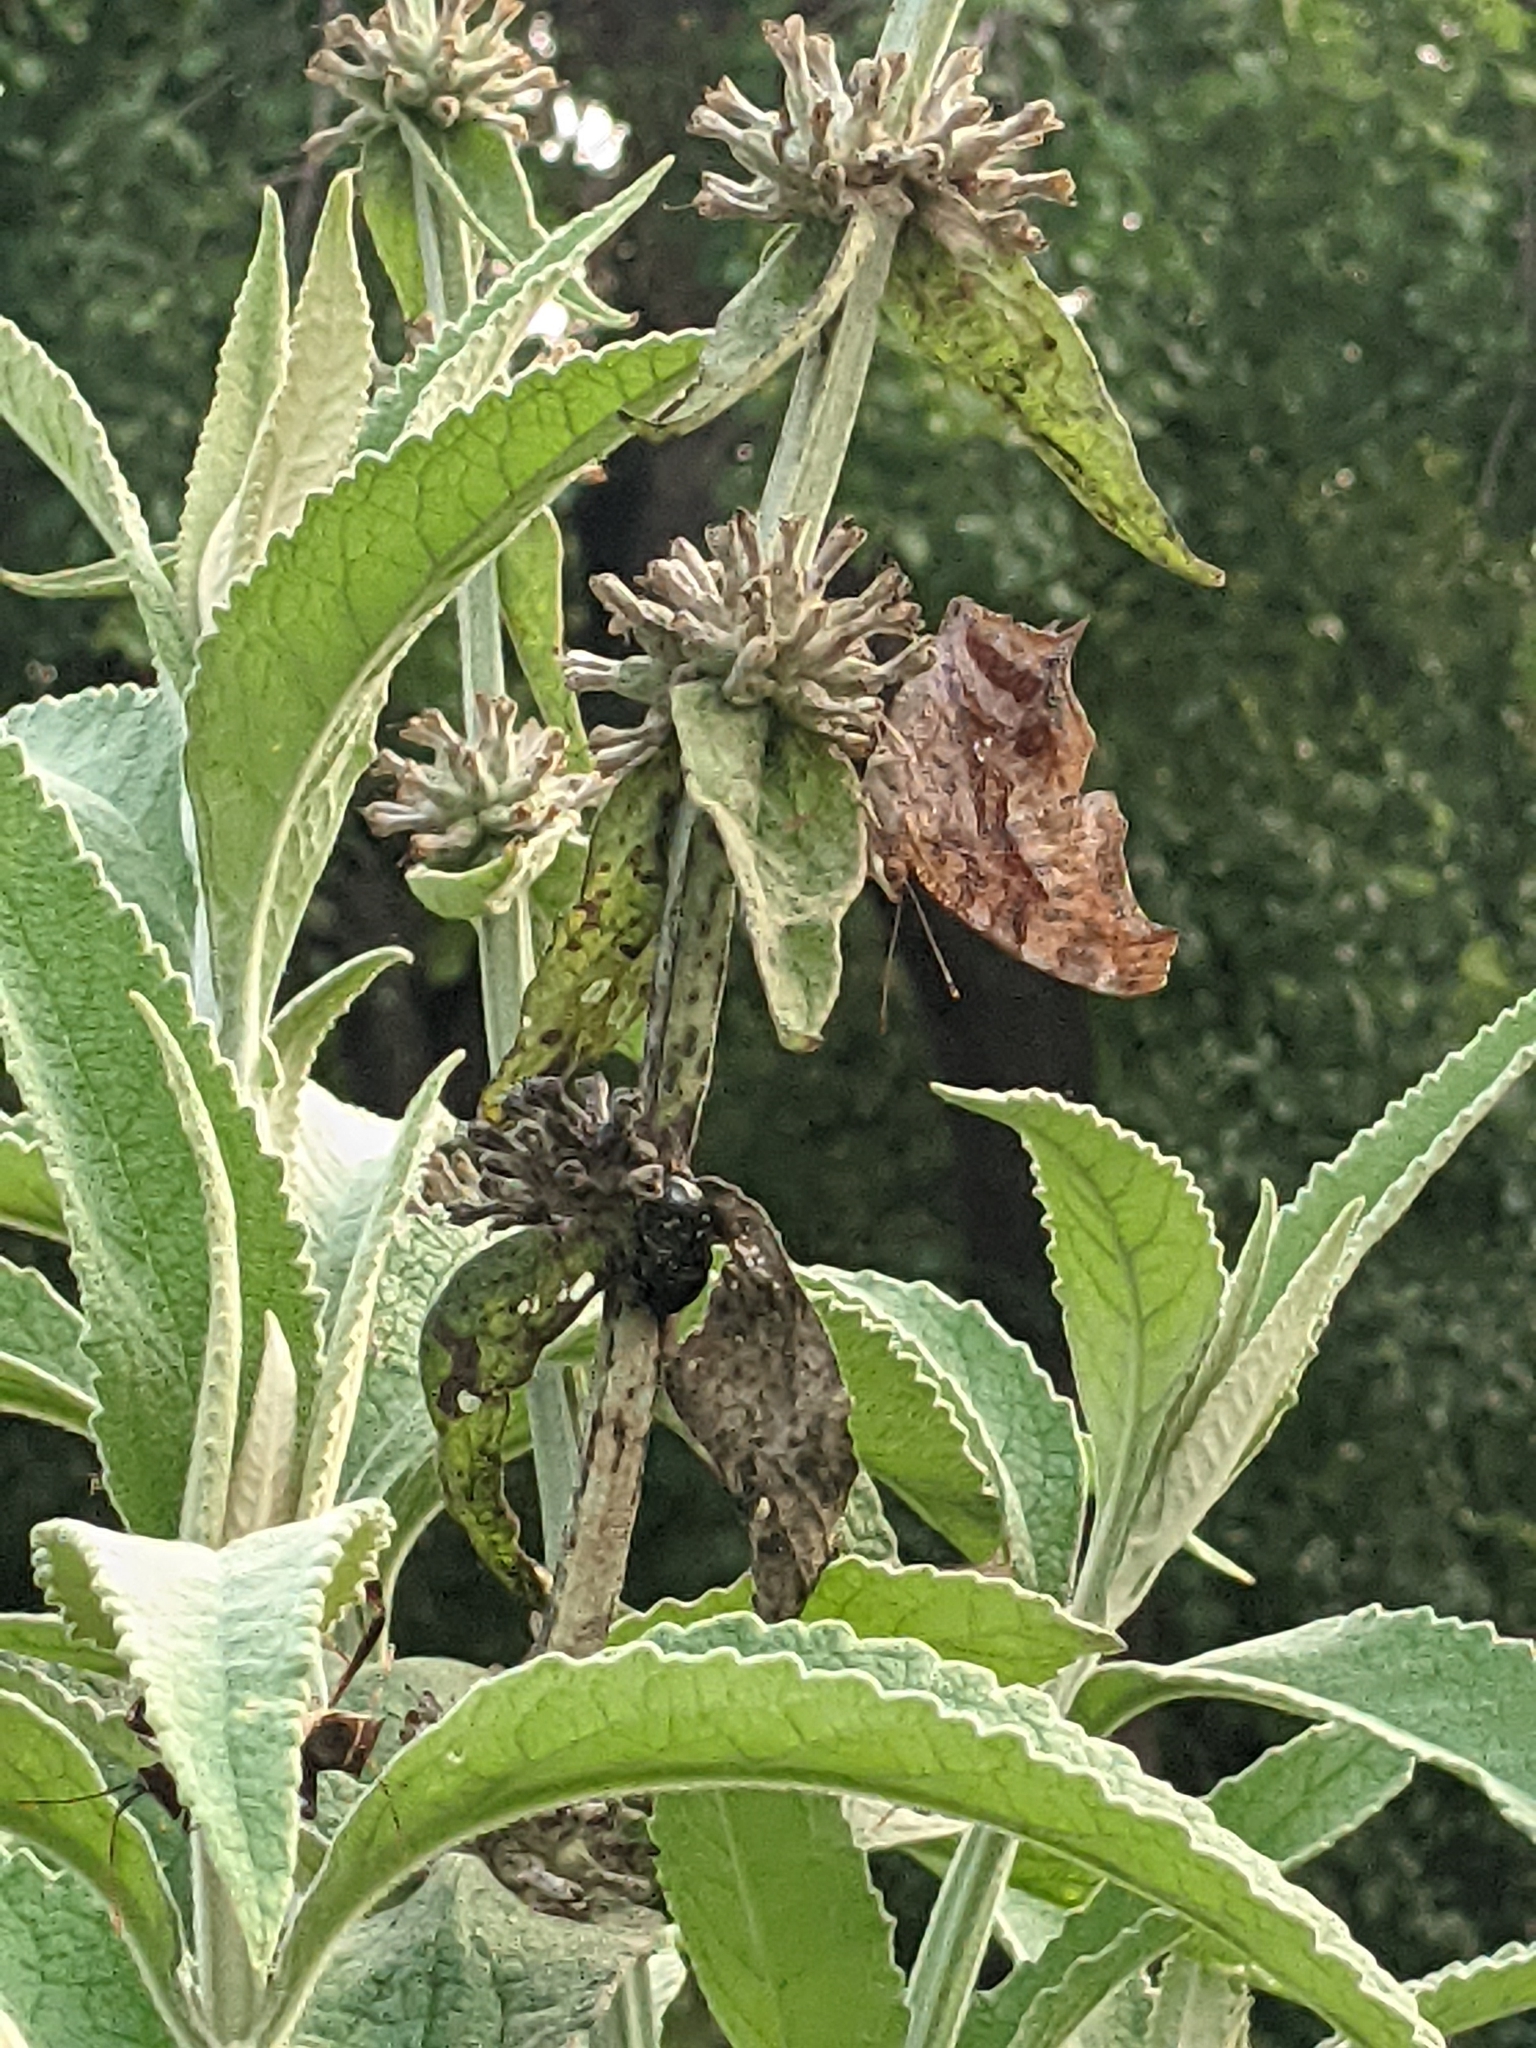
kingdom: Animalia
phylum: Arthropoda
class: Insecta
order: Lepidoptera
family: Nymphalidae
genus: Polygonia
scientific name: Polygonia interrogationis
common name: Question mark
